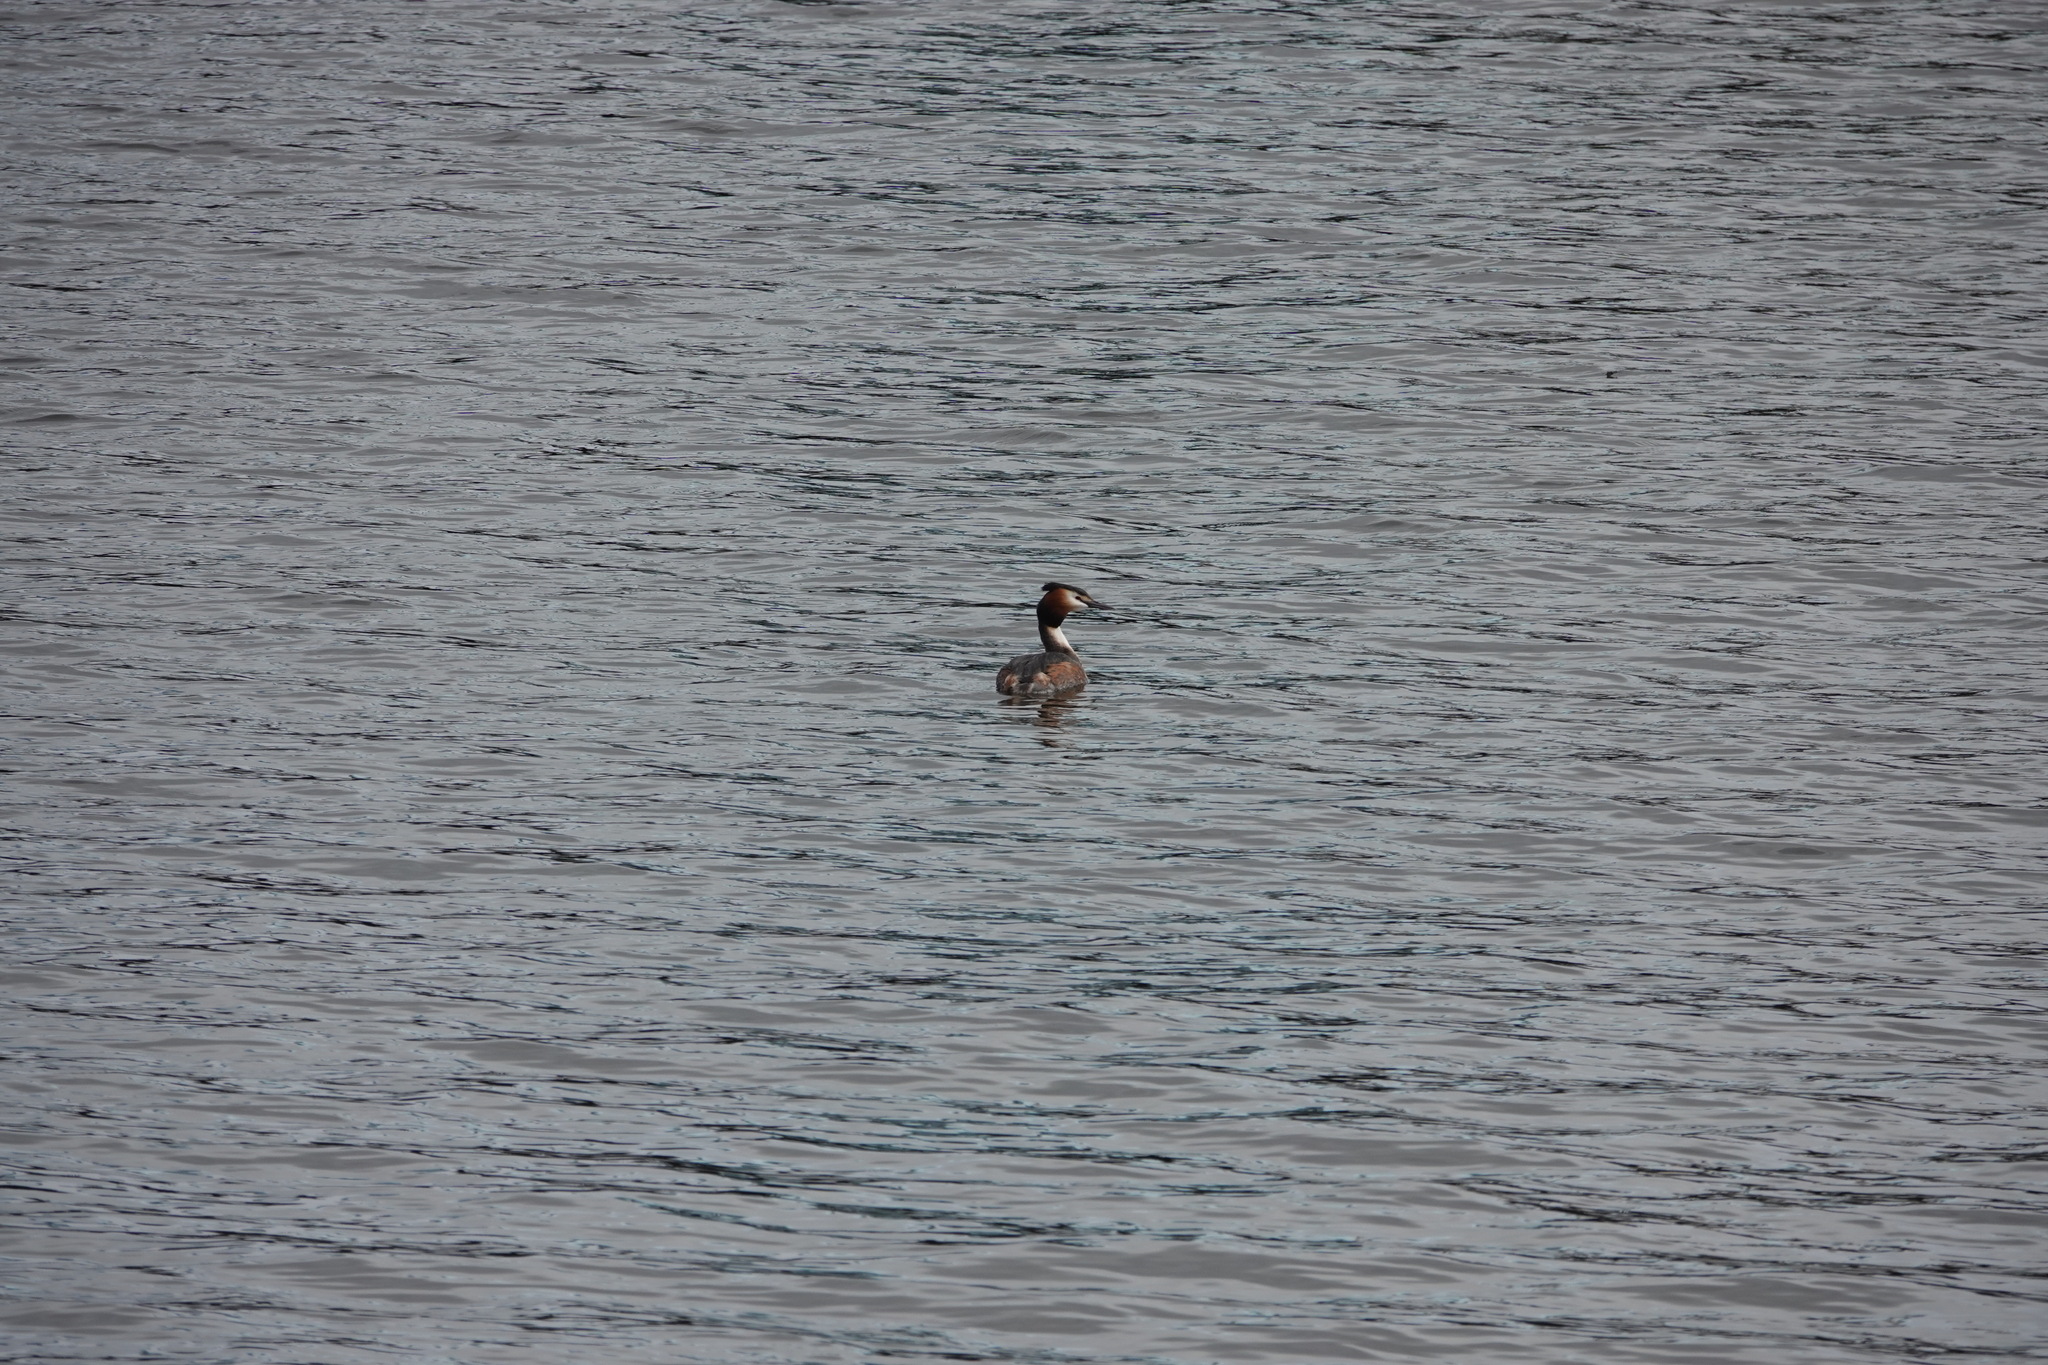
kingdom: Animalia
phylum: Chordata
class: Aves
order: Podicipediformes
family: Podicipedidae
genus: Podiceps
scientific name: Podiceps cristatus
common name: Great crested grebe
